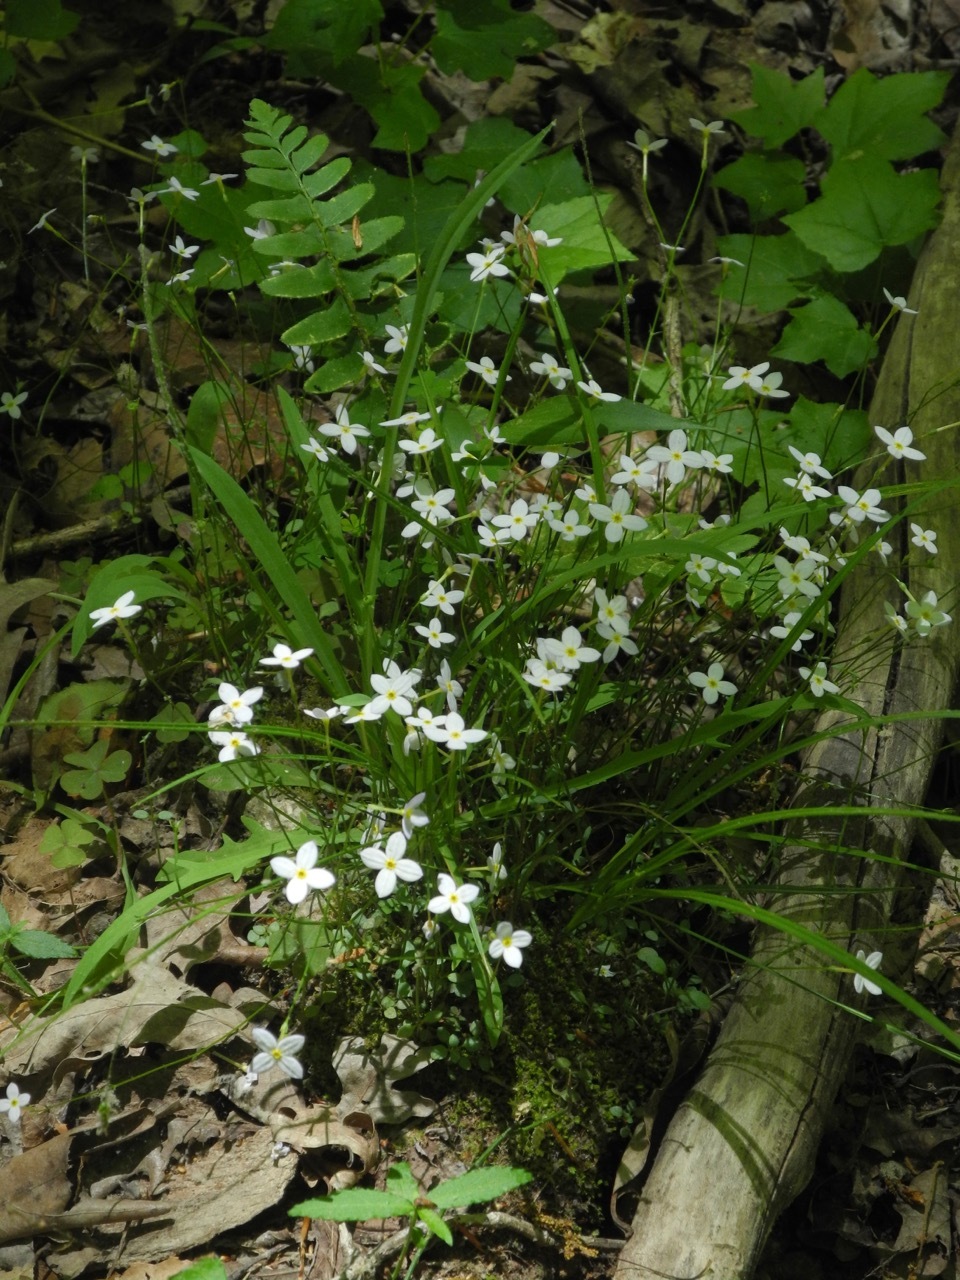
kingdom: Plantae
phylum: Tracheophyta
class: Magnoliopsida
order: Gentianales
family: Rubiaceae
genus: Houstonia
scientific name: Houstonia caerulea
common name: Bluets
